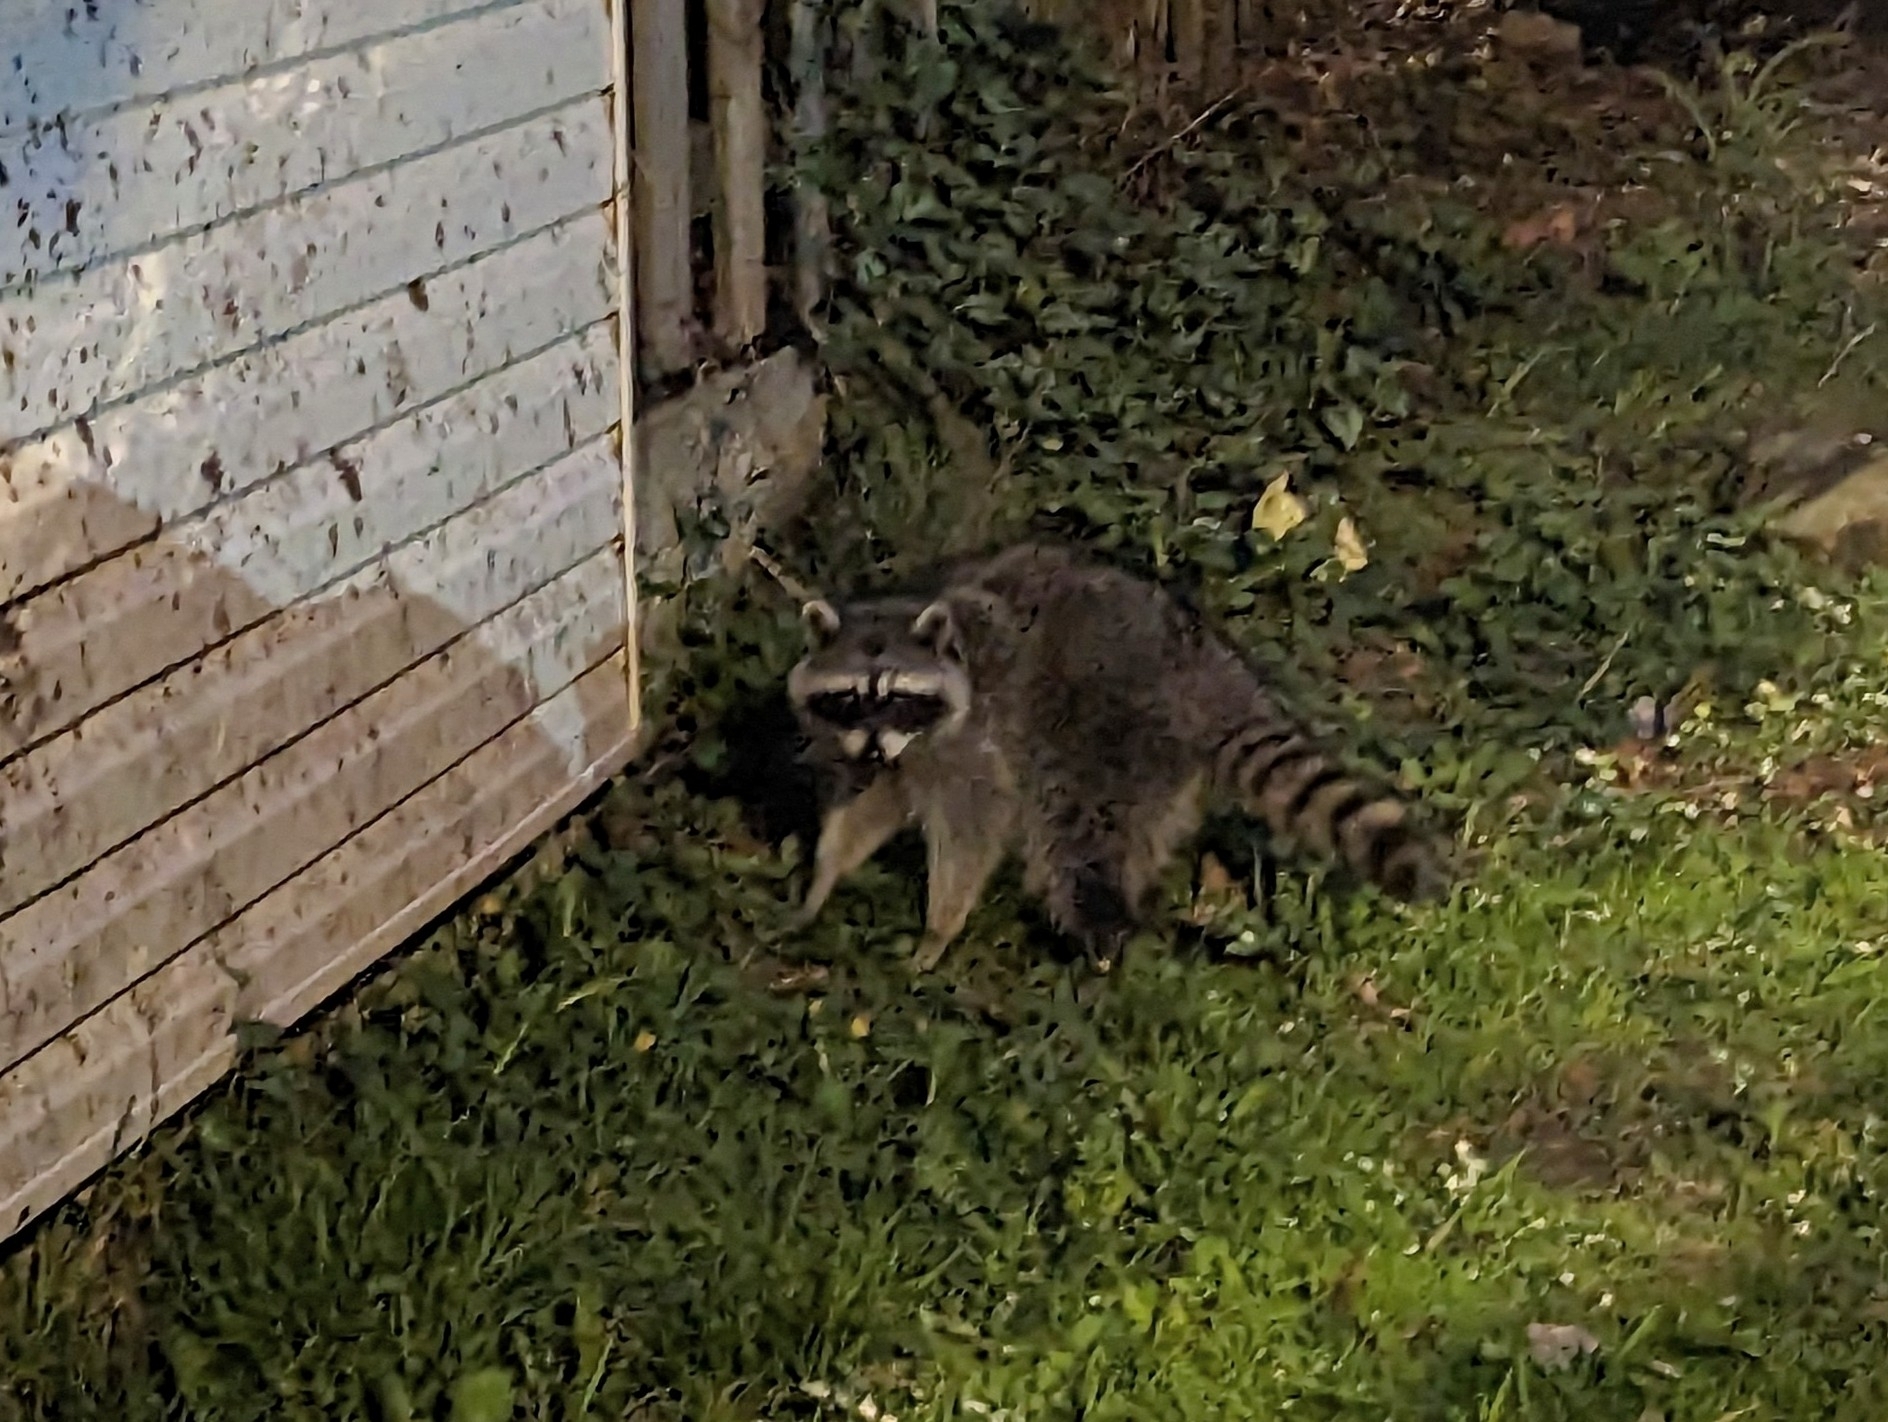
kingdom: Animalia
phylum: Chordata
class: Mammalia
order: Carnivora
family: Procyonidae
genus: Procyon
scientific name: Procyon lotor
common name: Raccoon
